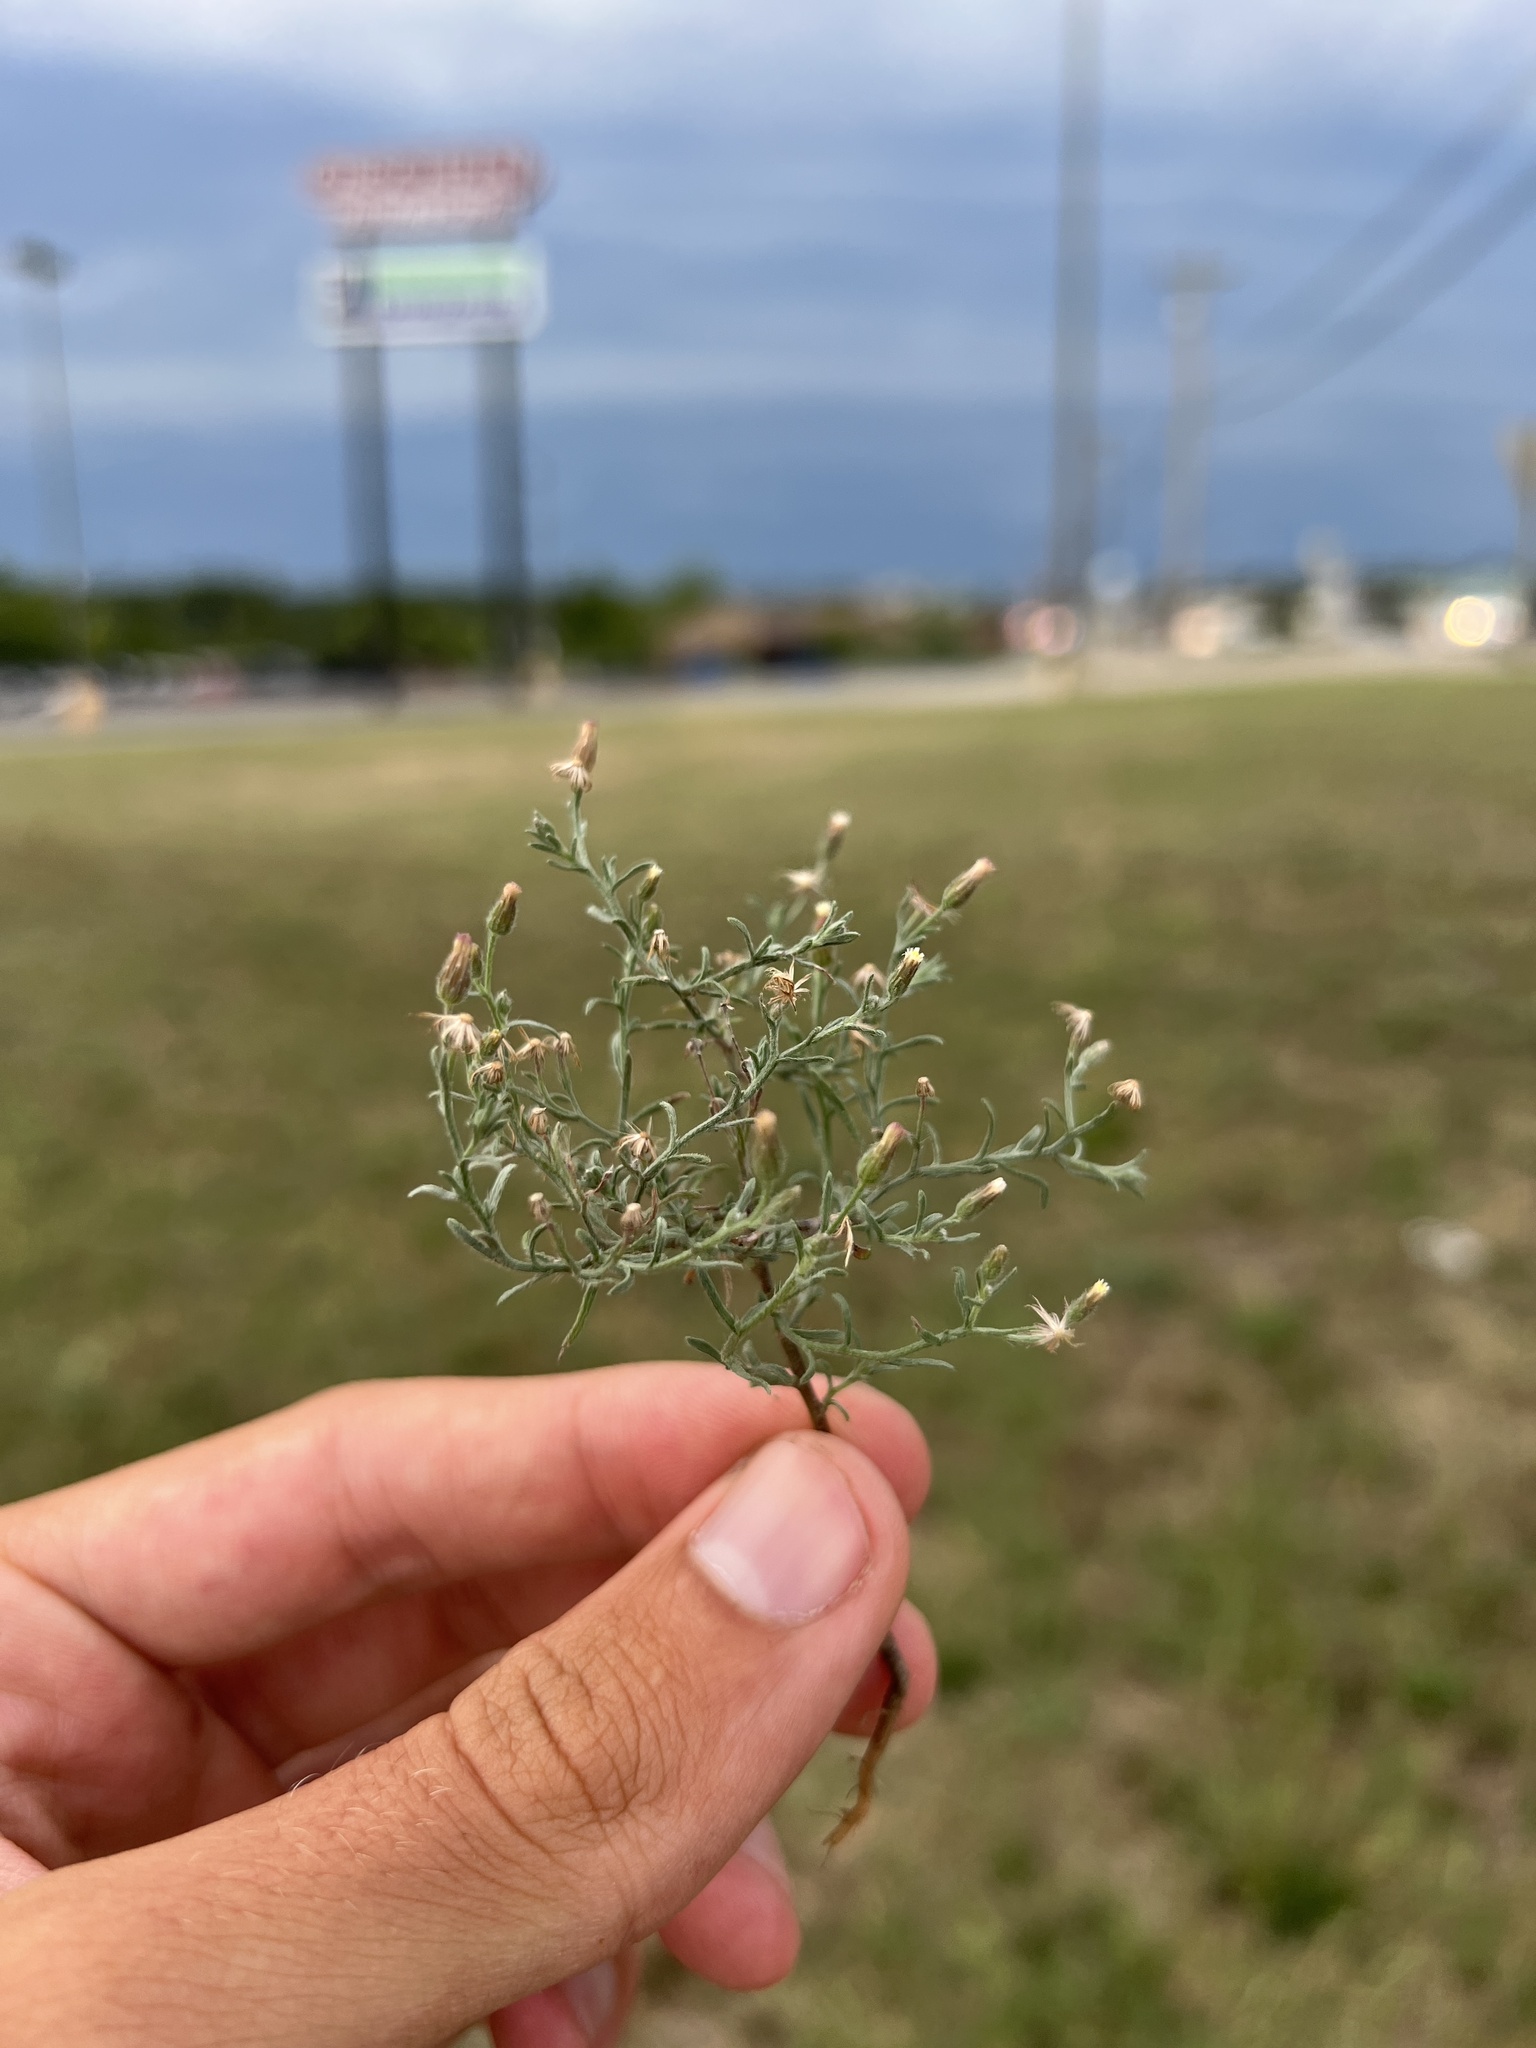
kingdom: Plantae
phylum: Tracheophyta
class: Magnoliopsida
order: Asterales
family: Asteraceae
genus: Erigeron
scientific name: Erigeron divaricatus
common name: Dwarf conyza
